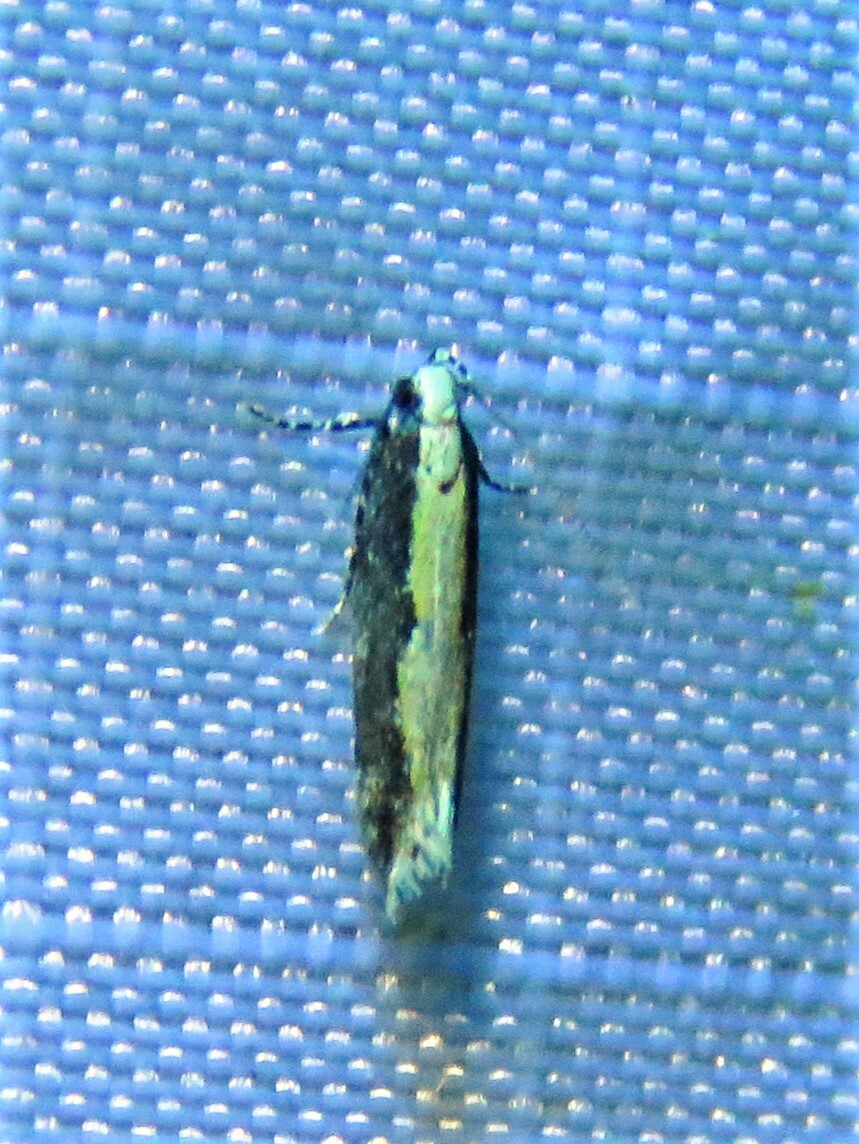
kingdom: Animalia
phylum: Arthropoda
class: Insecta
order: Lepidoptera
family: Gelechiidae
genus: Aristotelia
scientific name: Aristotelia corallina
